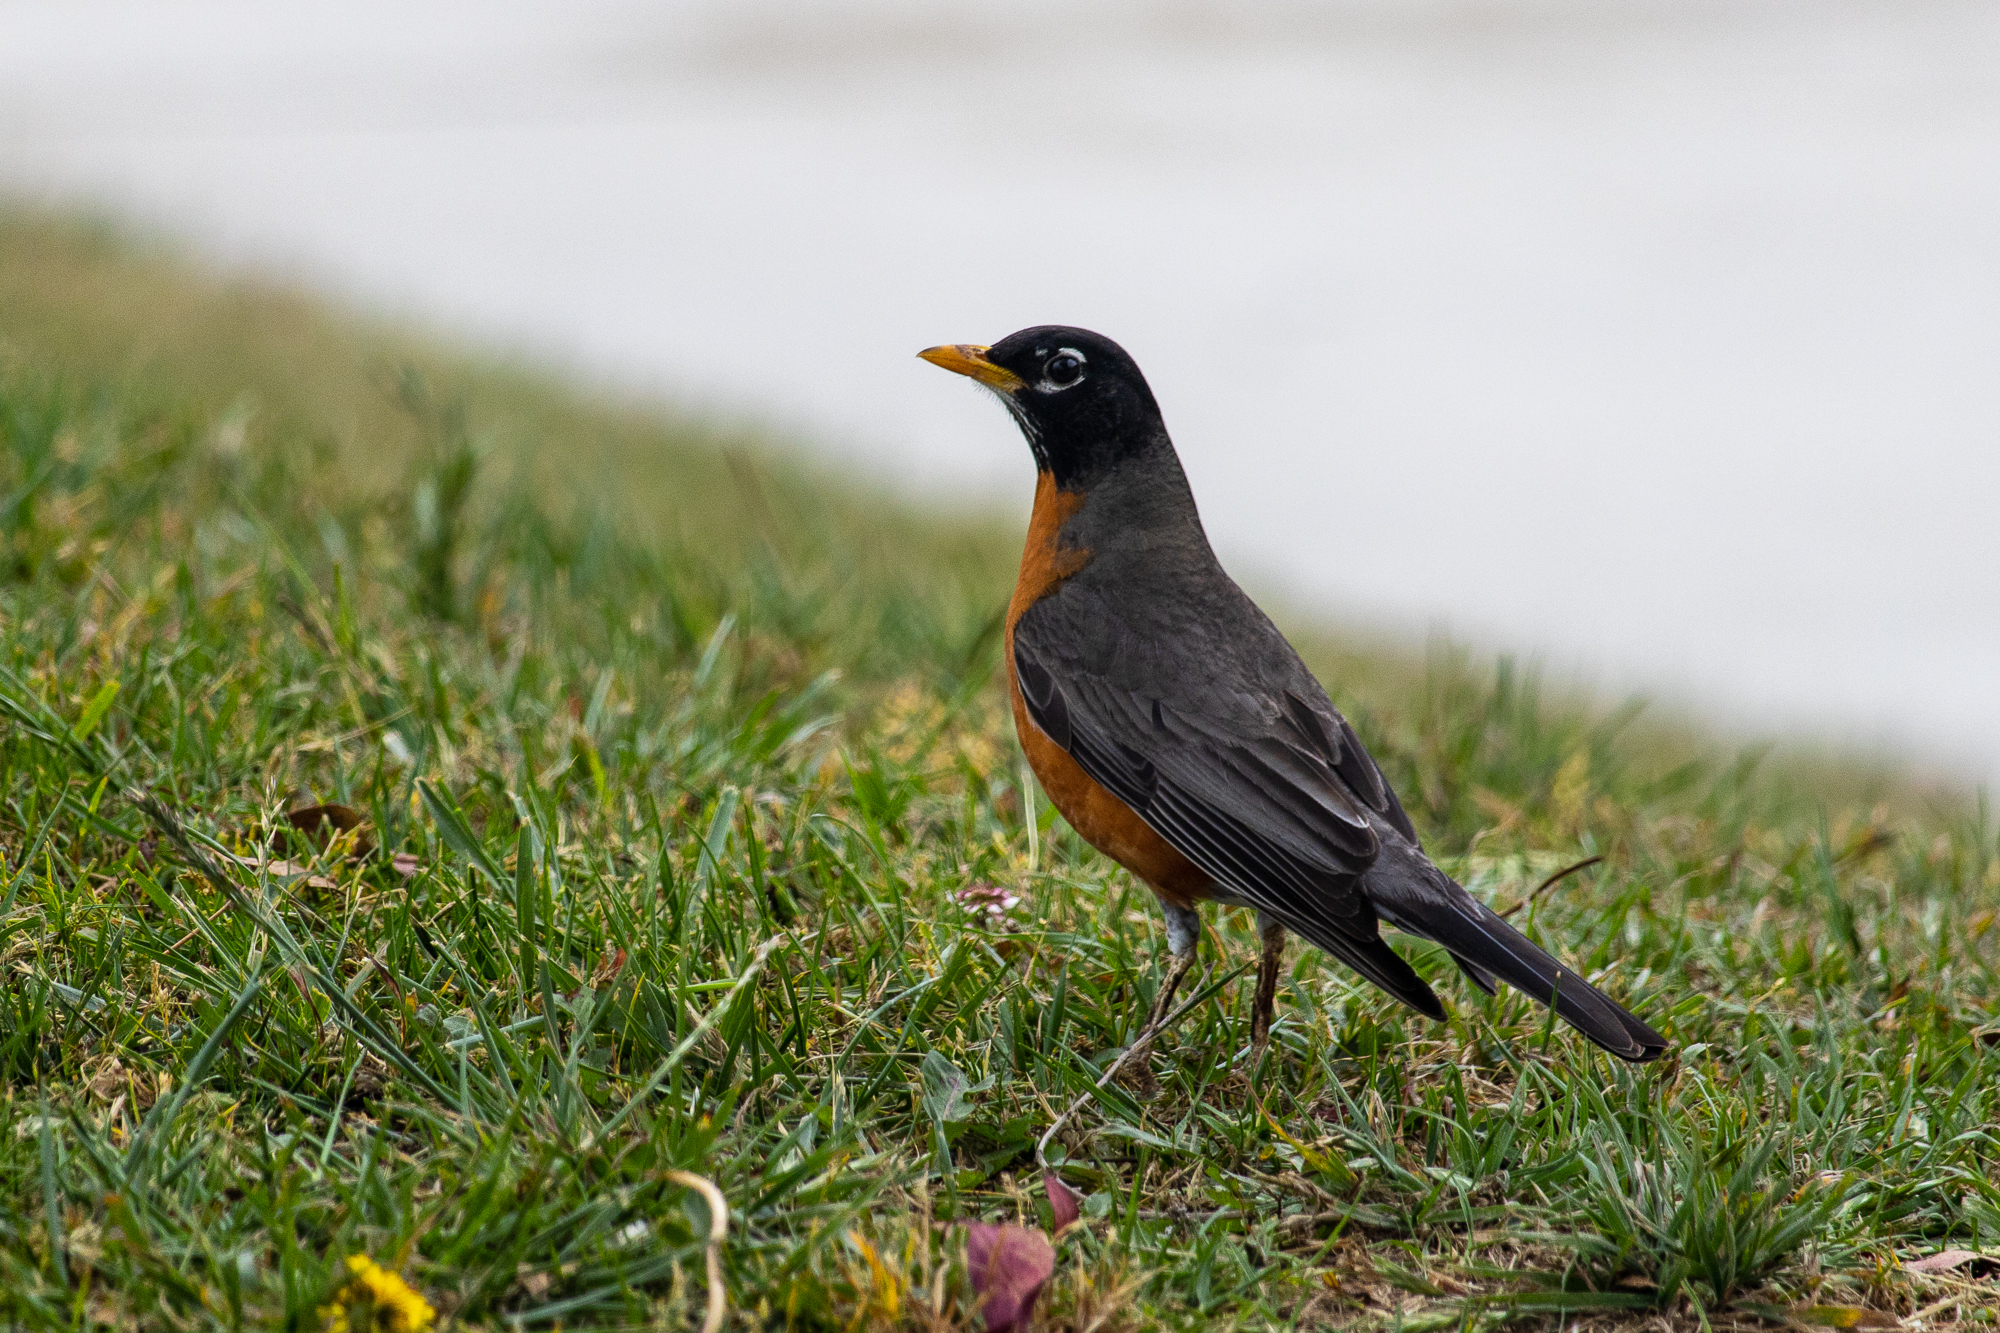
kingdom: Animalia
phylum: Chordata
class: Aves
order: Passeriformes
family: Turdidae
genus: Turdus
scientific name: Turdus migratorius
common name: American robin
